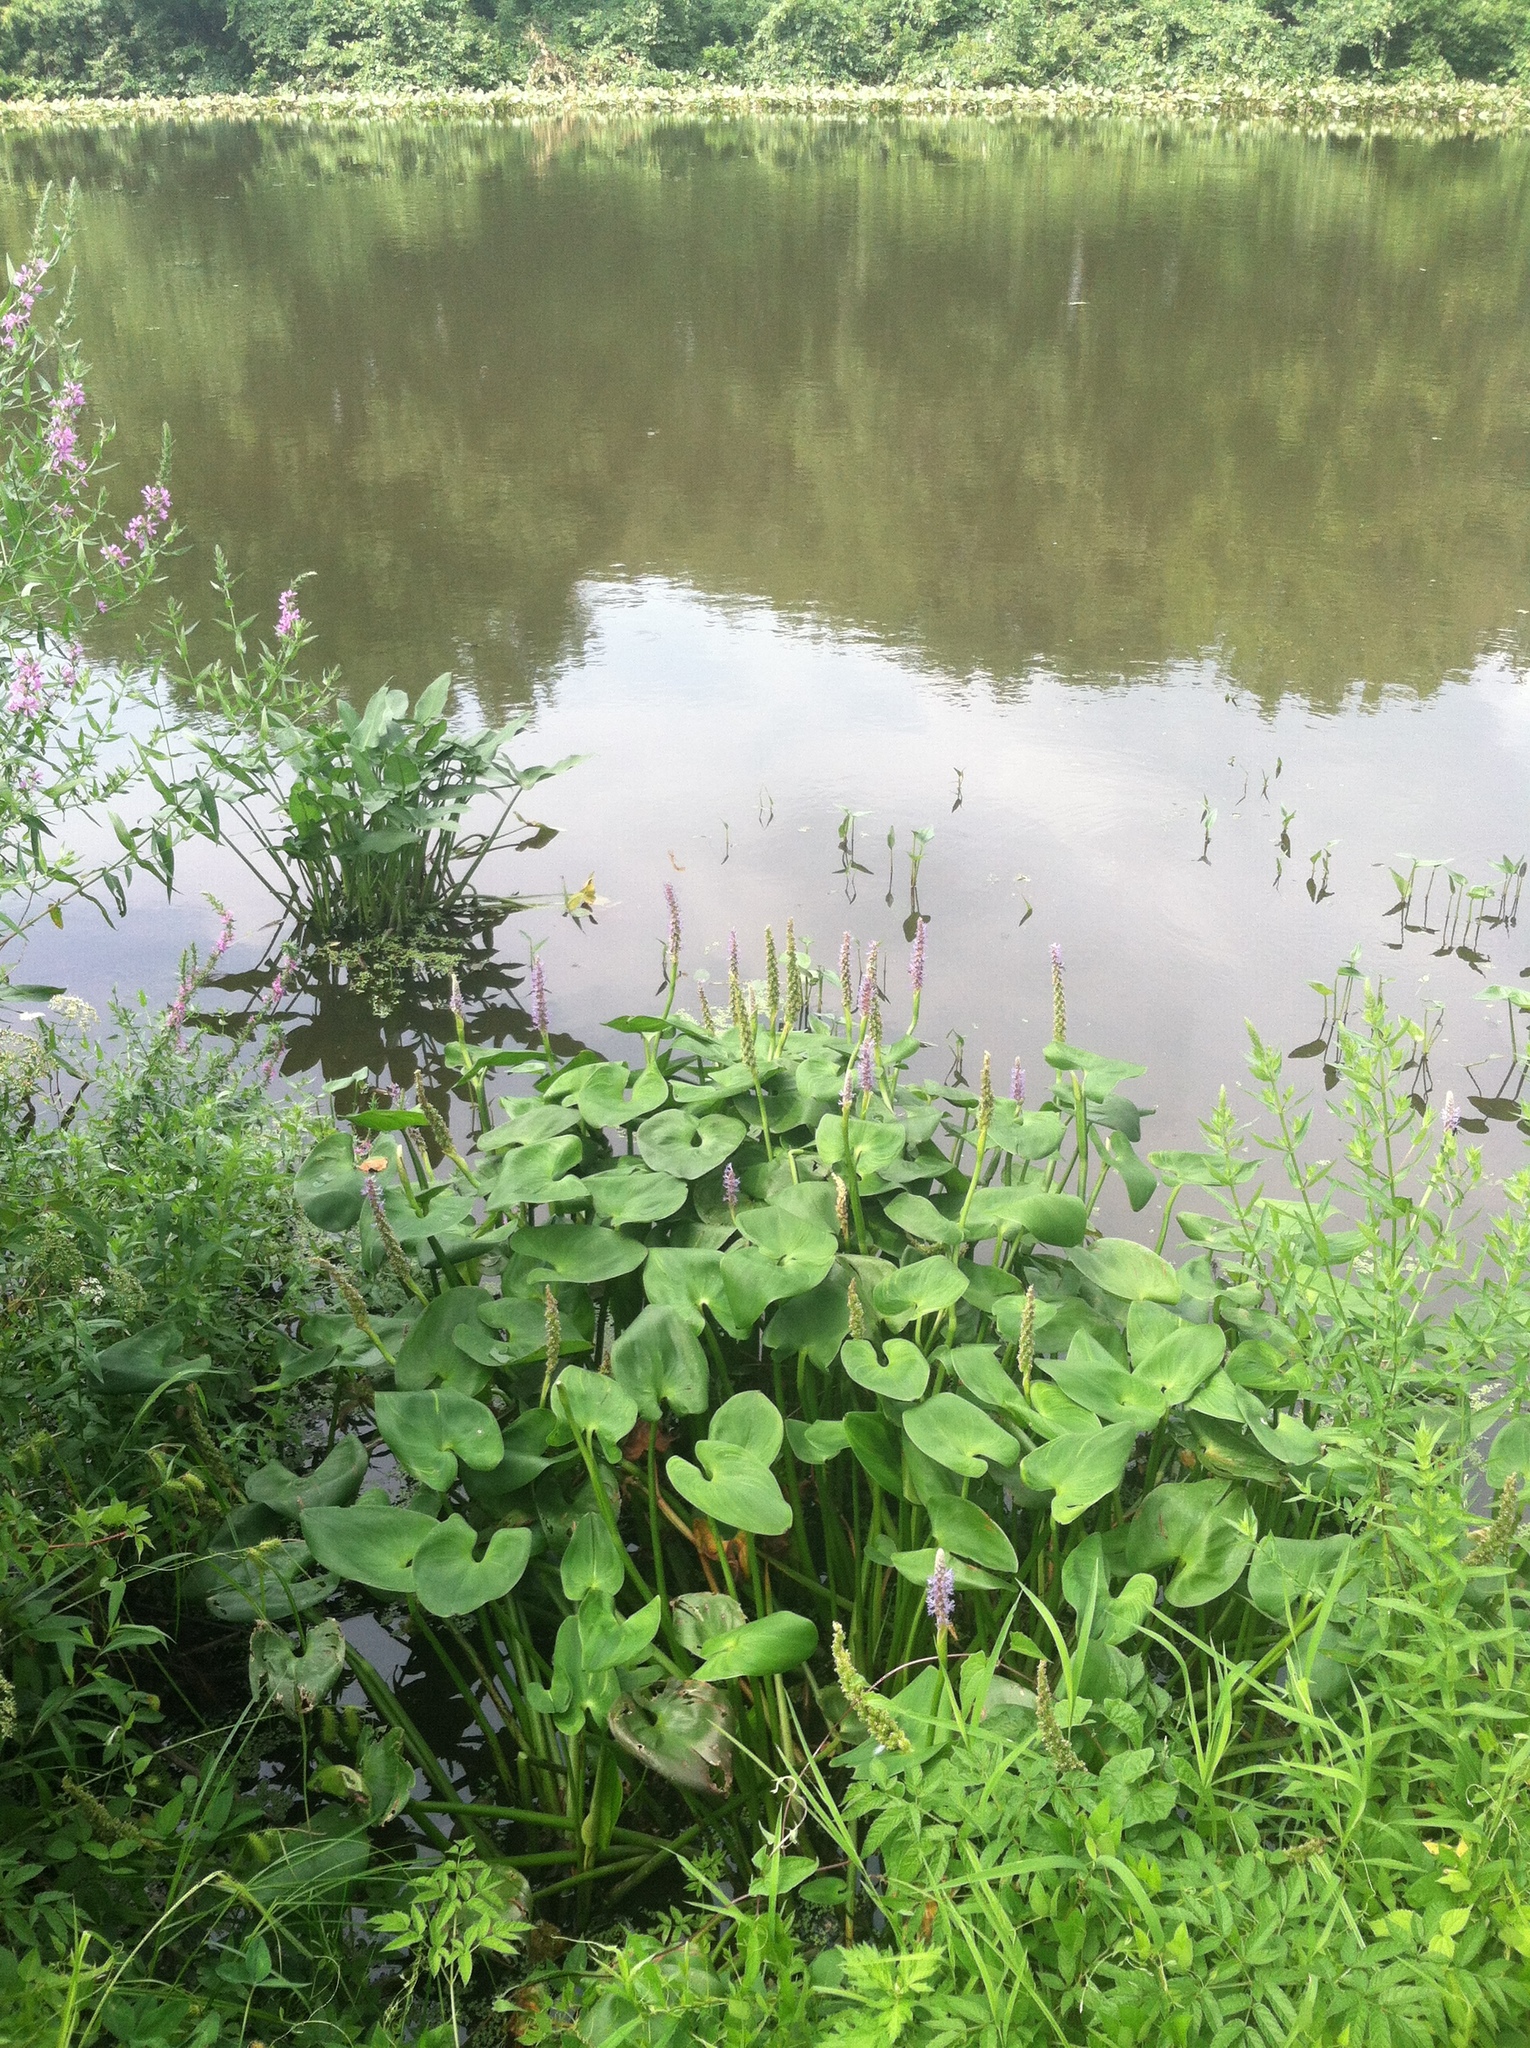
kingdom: Plantae
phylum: Tracheophyta
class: Liliopsida
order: Commelinales
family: Pontederiaceae
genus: Pontederia
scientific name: Pontederia cordata
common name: Pickerelweed
